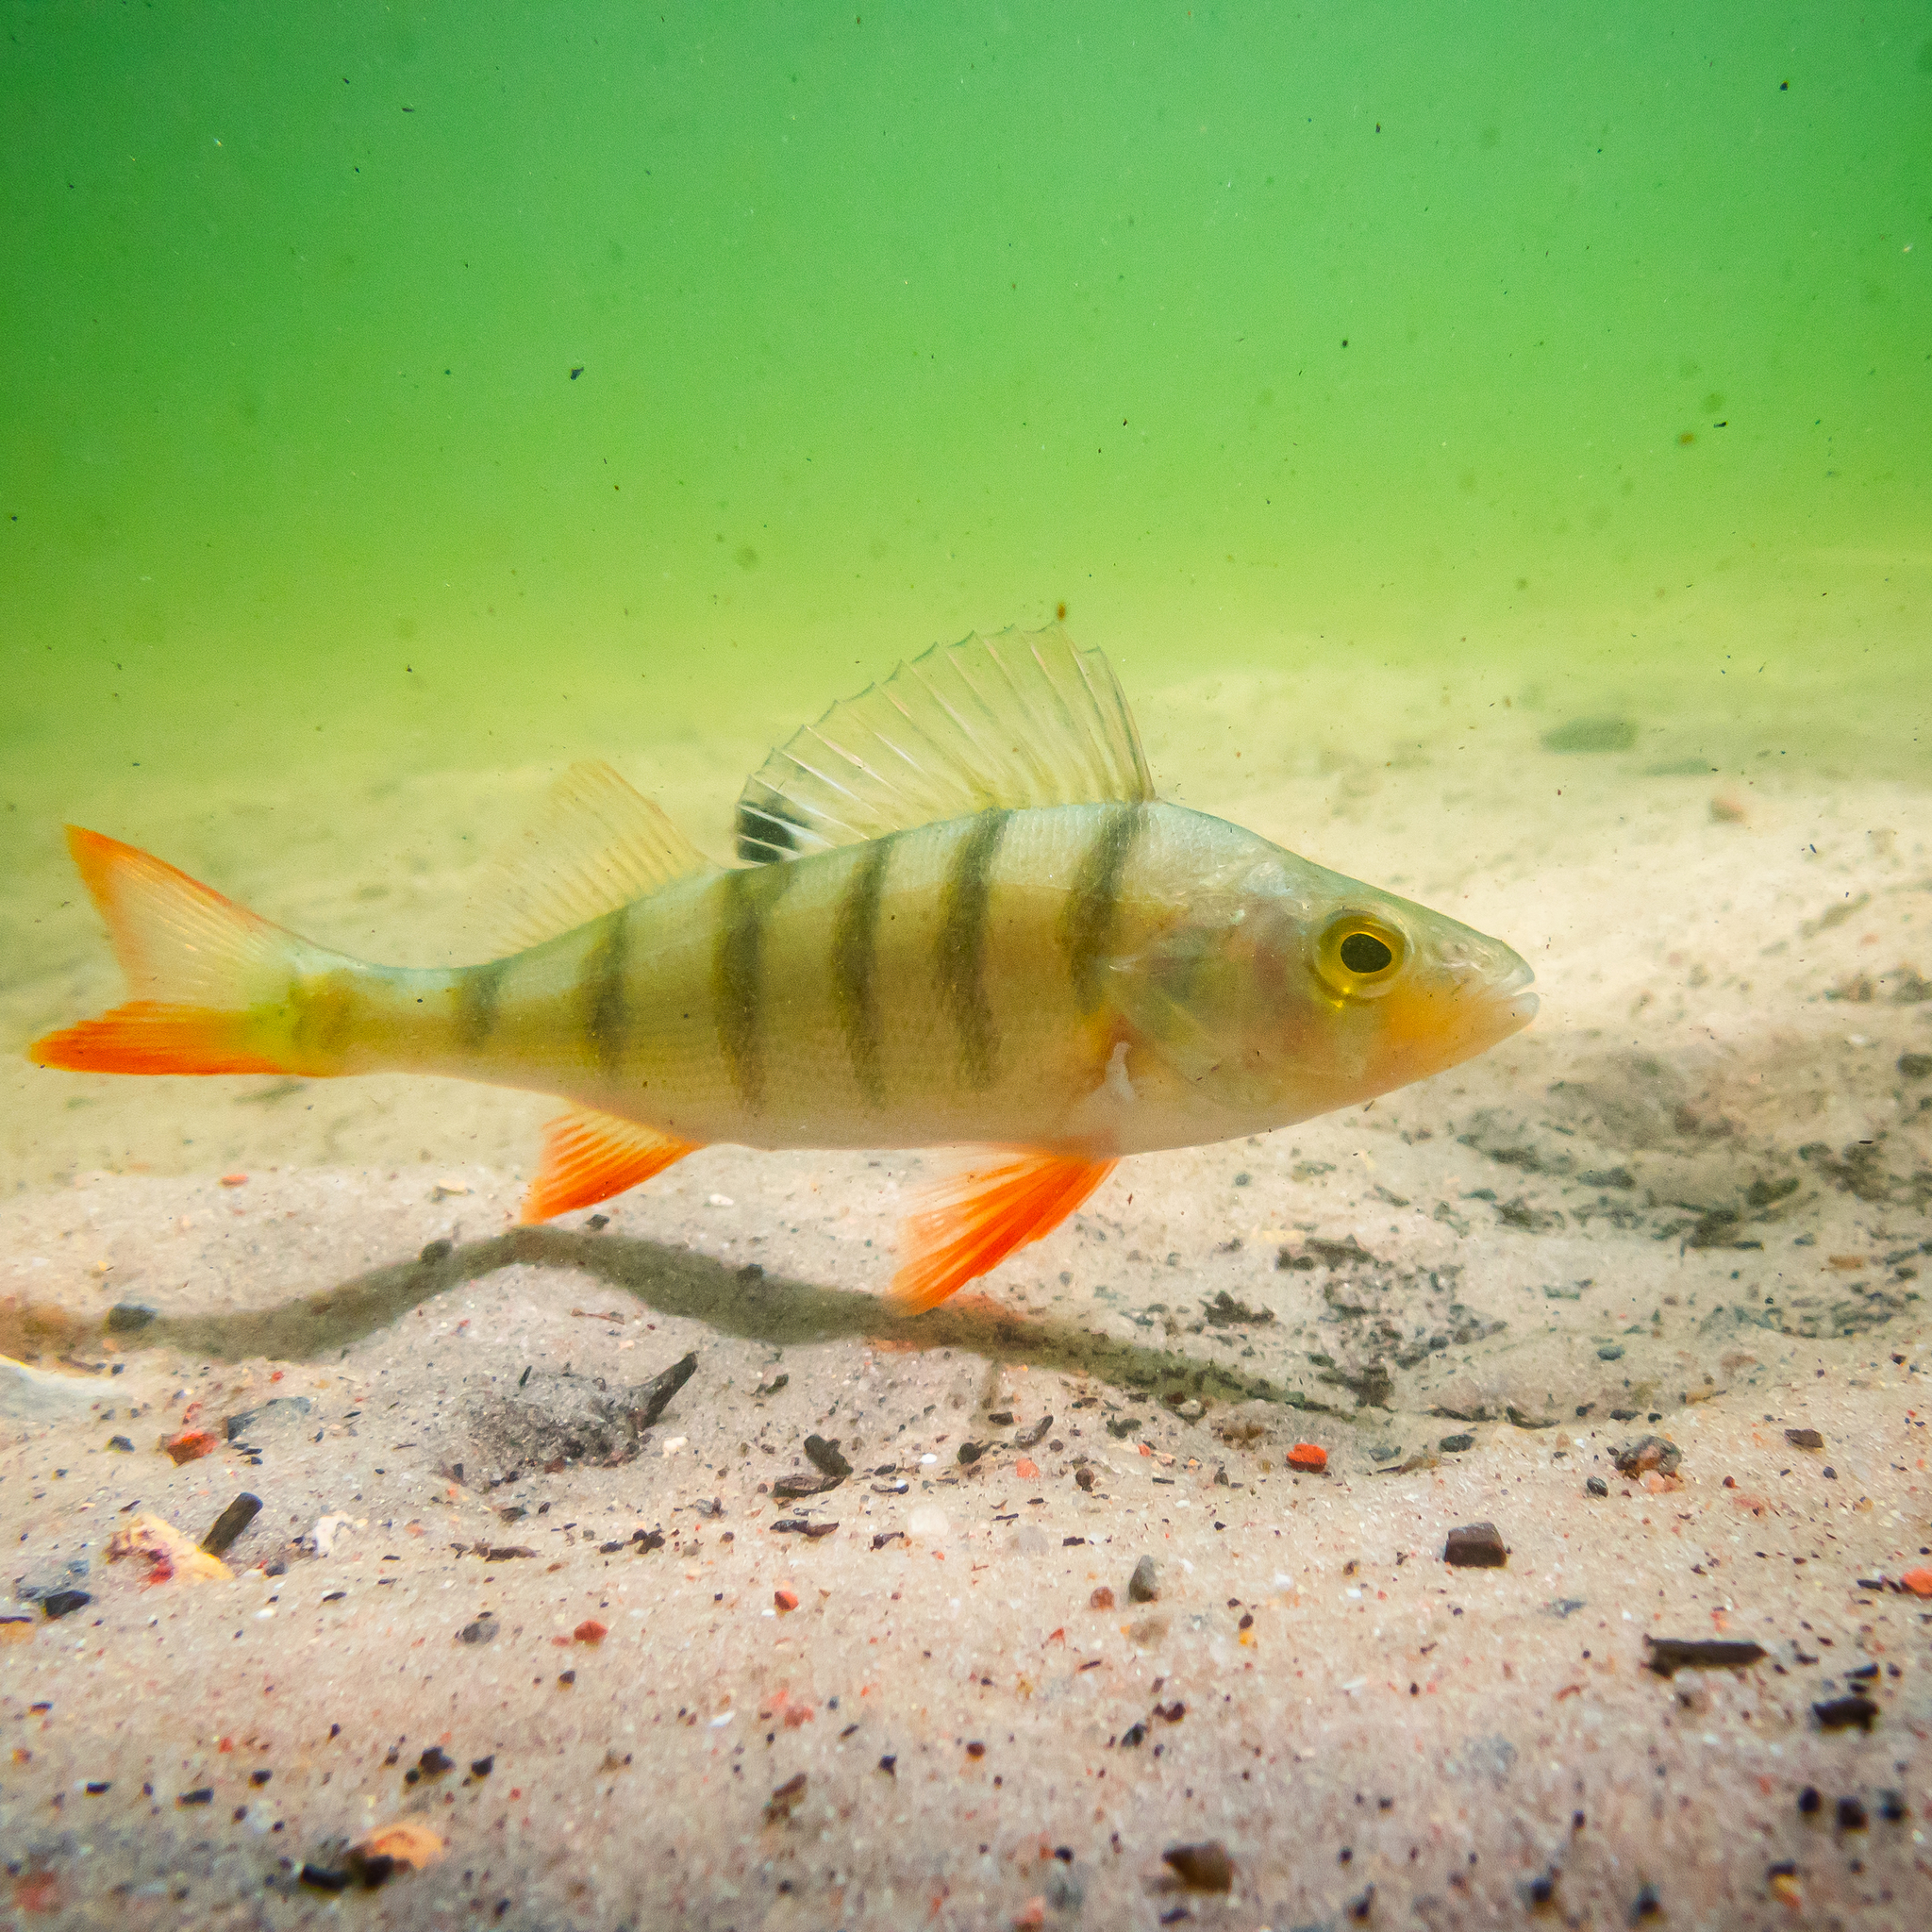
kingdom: Animalia
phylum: Chordata
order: Perciformes
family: Percidae
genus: Perca
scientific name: Perca fluviatilis
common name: Perch
